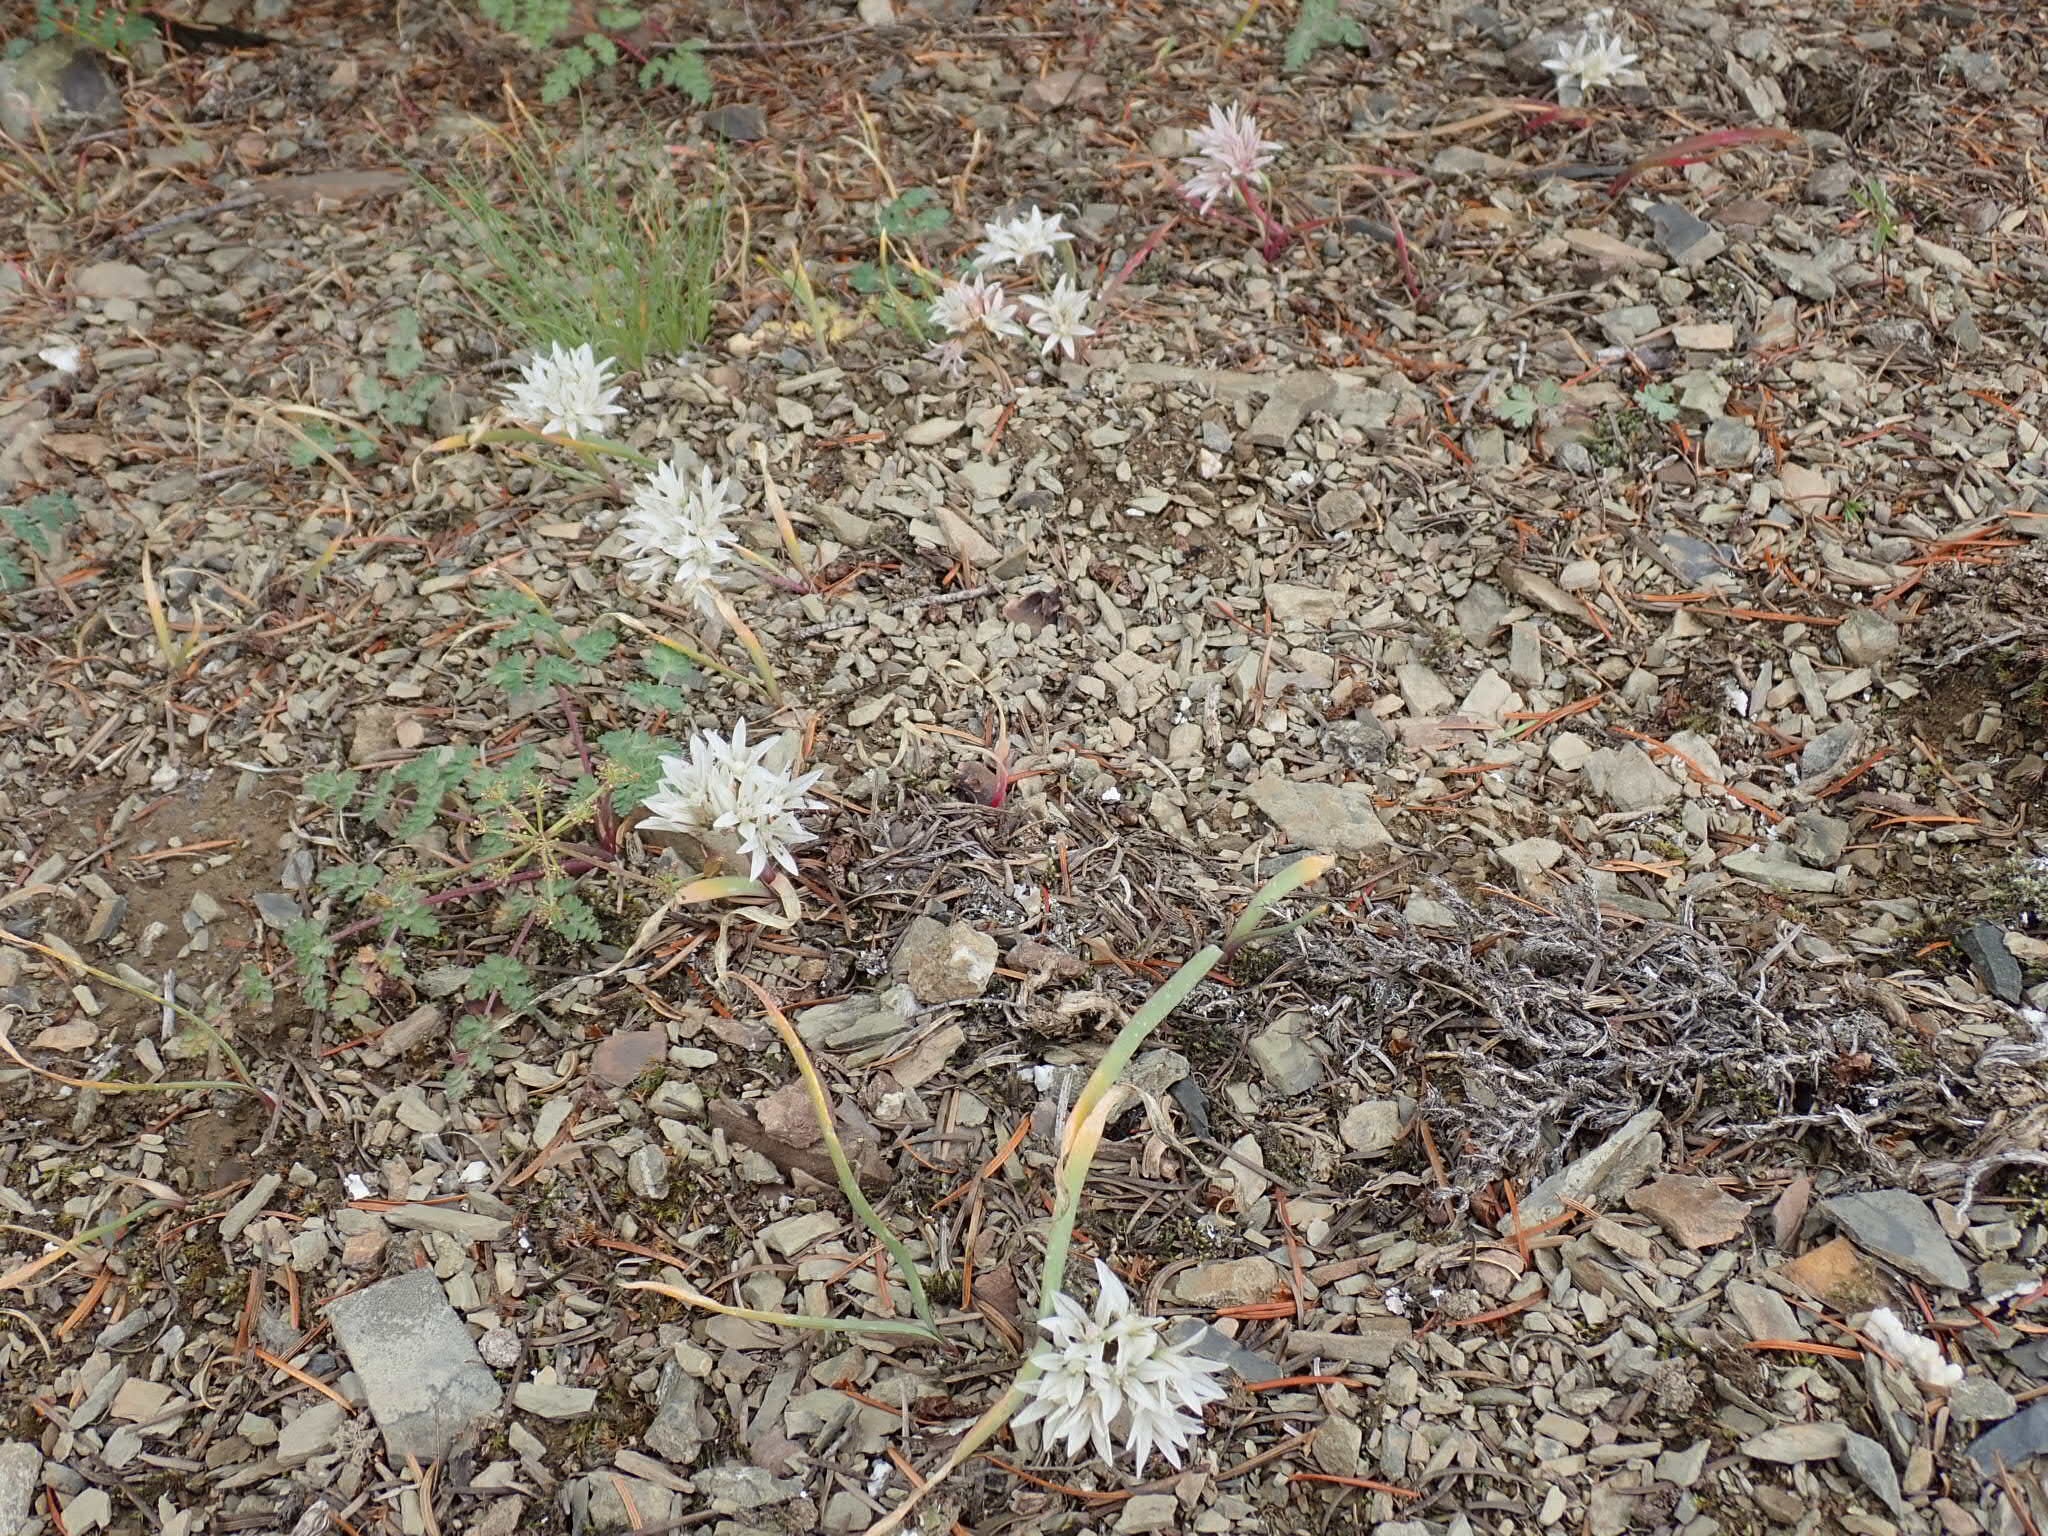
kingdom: Plantae
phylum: Tracheophyta
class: Liliopsida
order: Asparagales
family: Amaryllidaceae
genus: Allium
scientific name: Allium crenulatum
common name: Olympic onion
